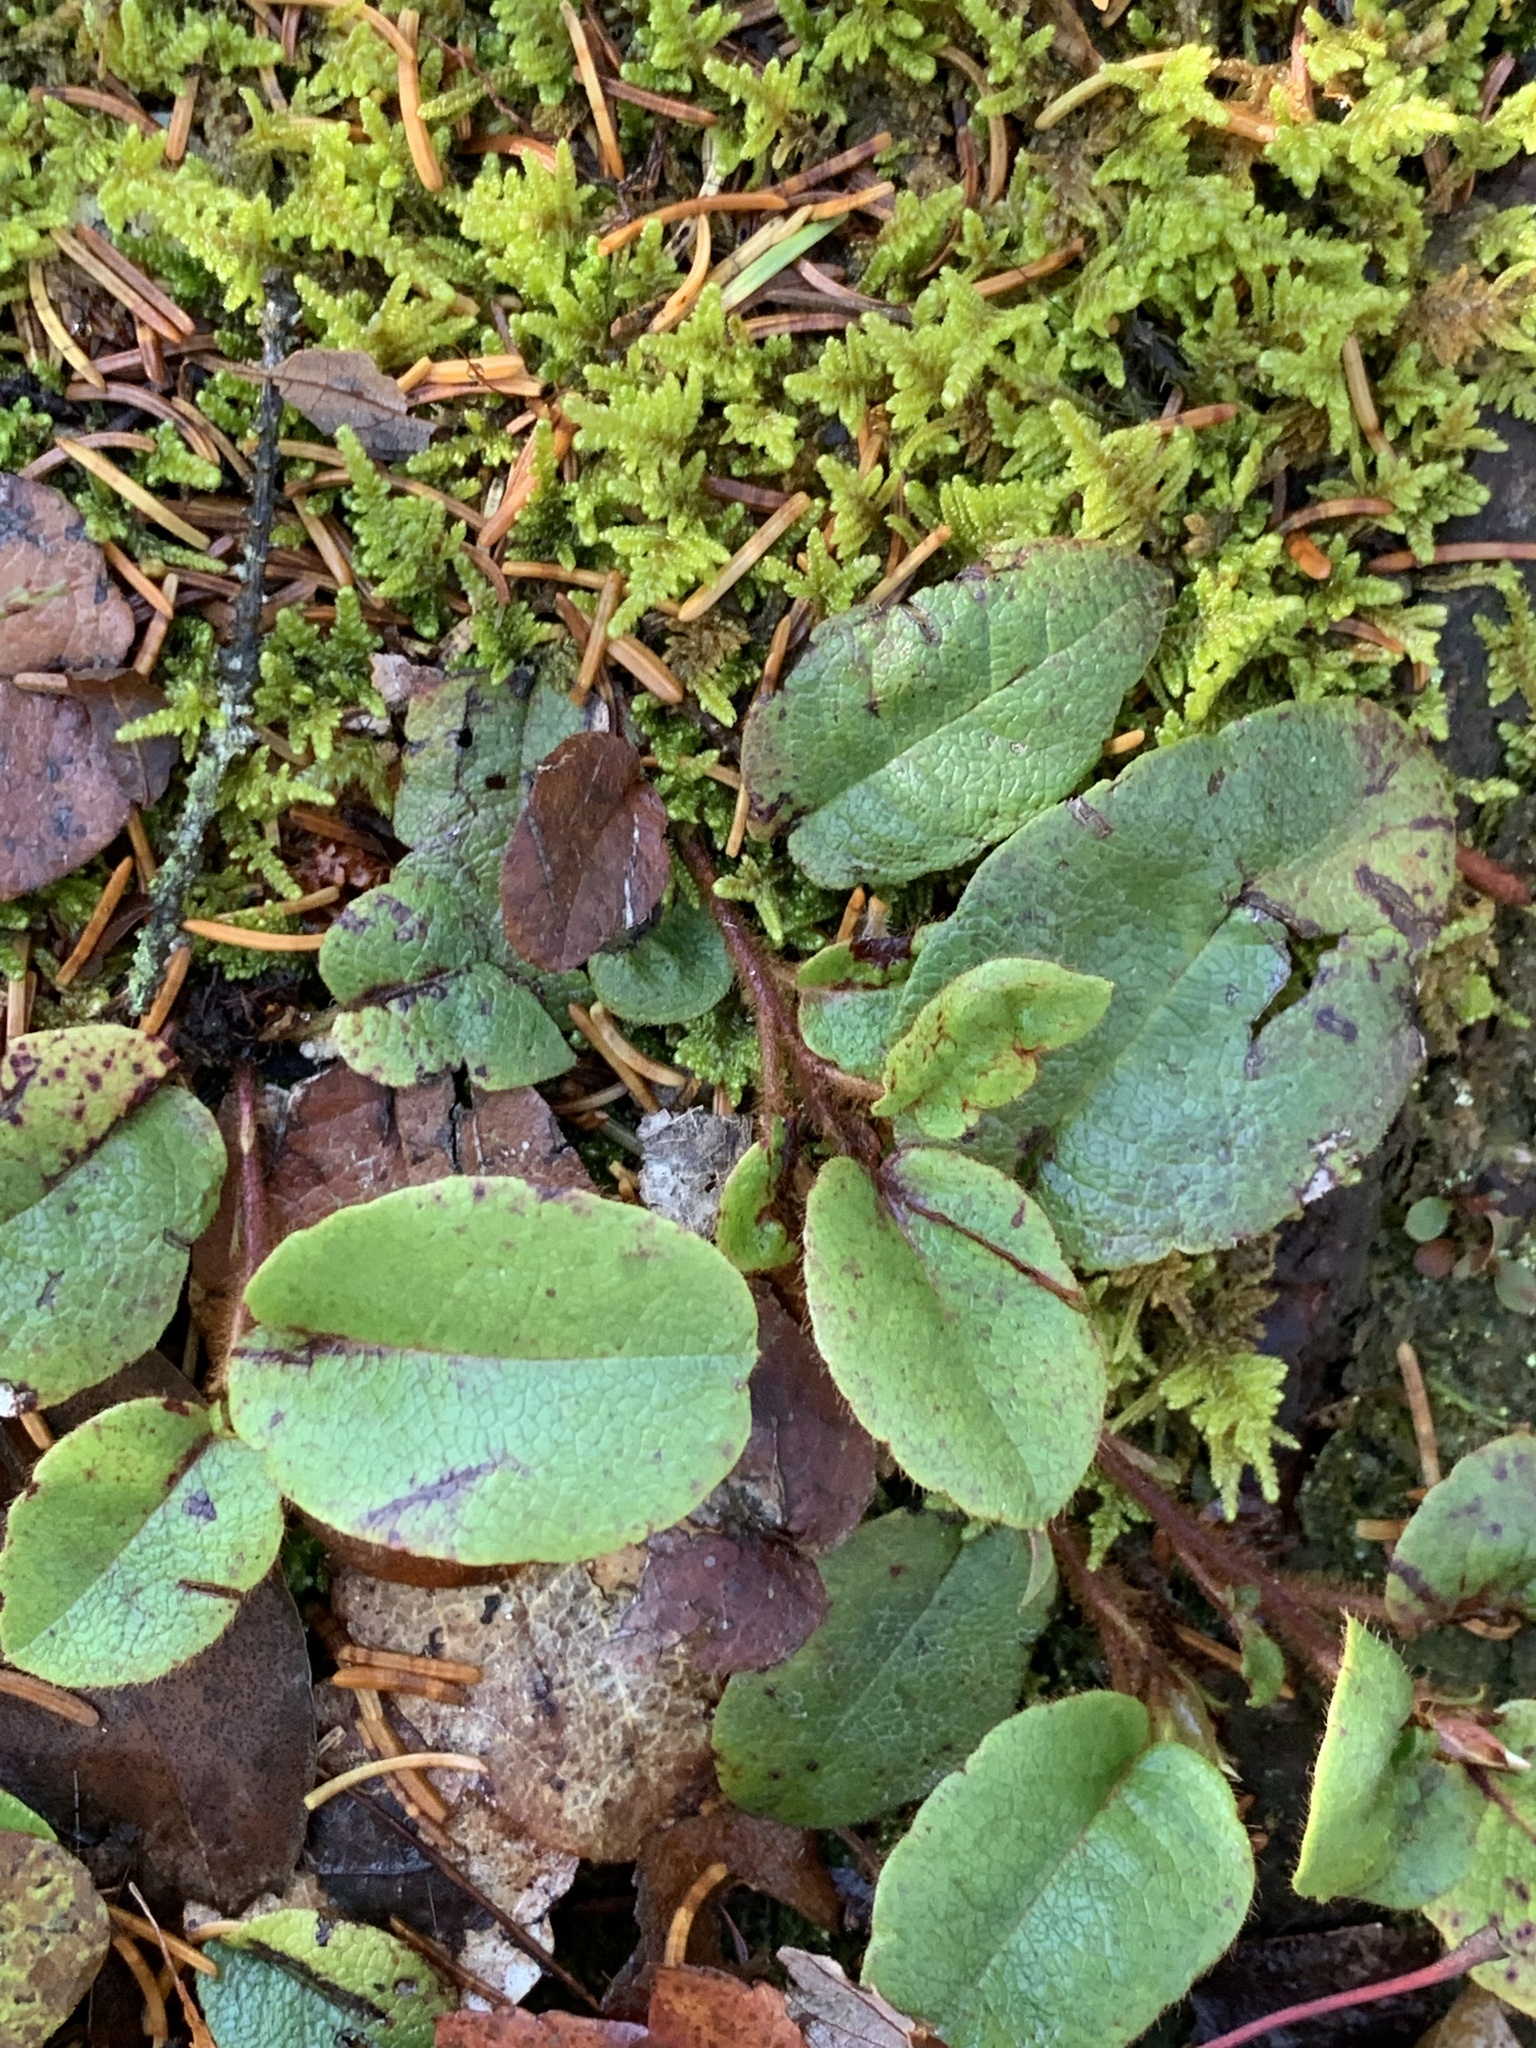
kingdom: Plantae
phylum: Tracheophyta
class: Magnoliopsida
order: Ericales
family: Ericaceae
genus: Epigaea
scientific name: Epigaea repens
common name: Gravelroot
